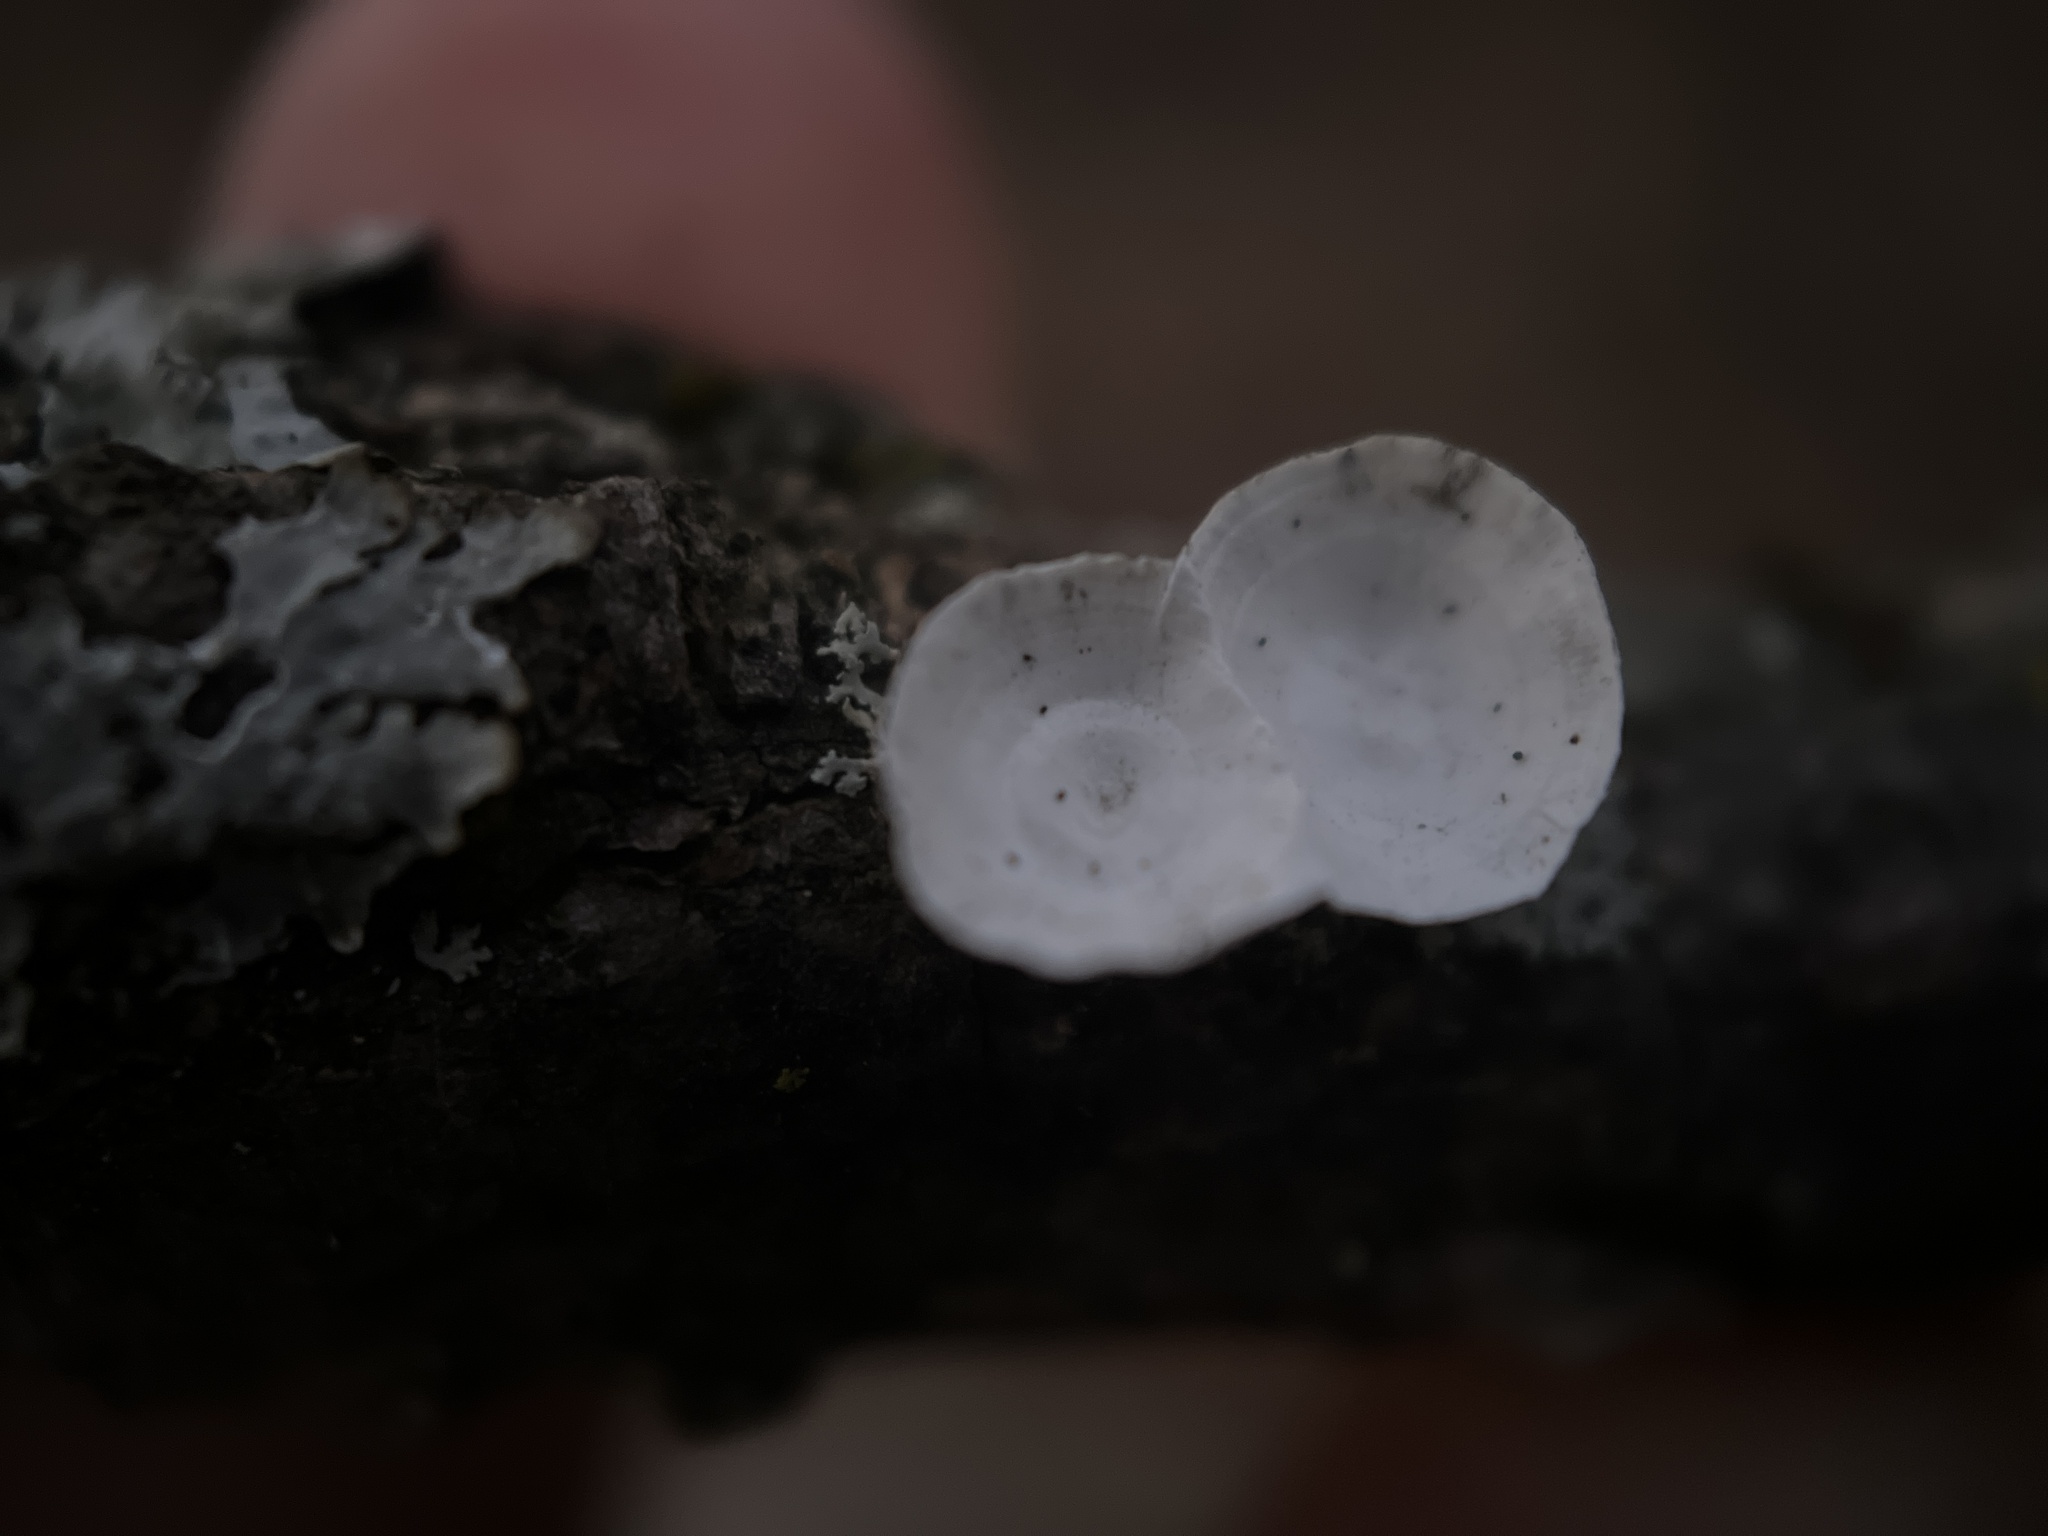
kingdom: Fungi
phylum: Basidiomycota
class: Agaricomycetes
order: Polyporales
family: Polyporaceae
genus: Poronidulus
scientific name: Poronidulus conchifer
